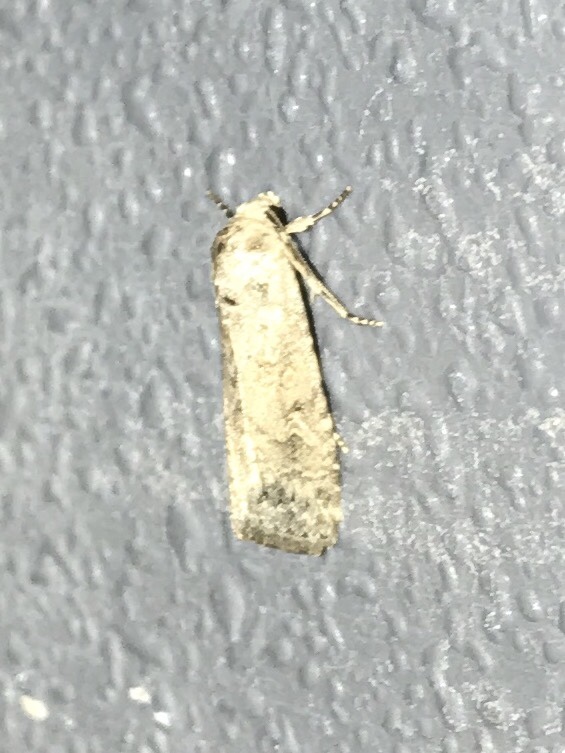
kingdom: Animalia
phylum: Arthropoda
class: Insecta
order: Lepidoptera
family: Noctuidae
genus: Spodoptera
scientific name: Spodoptera exigua
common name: Beet armyworm
